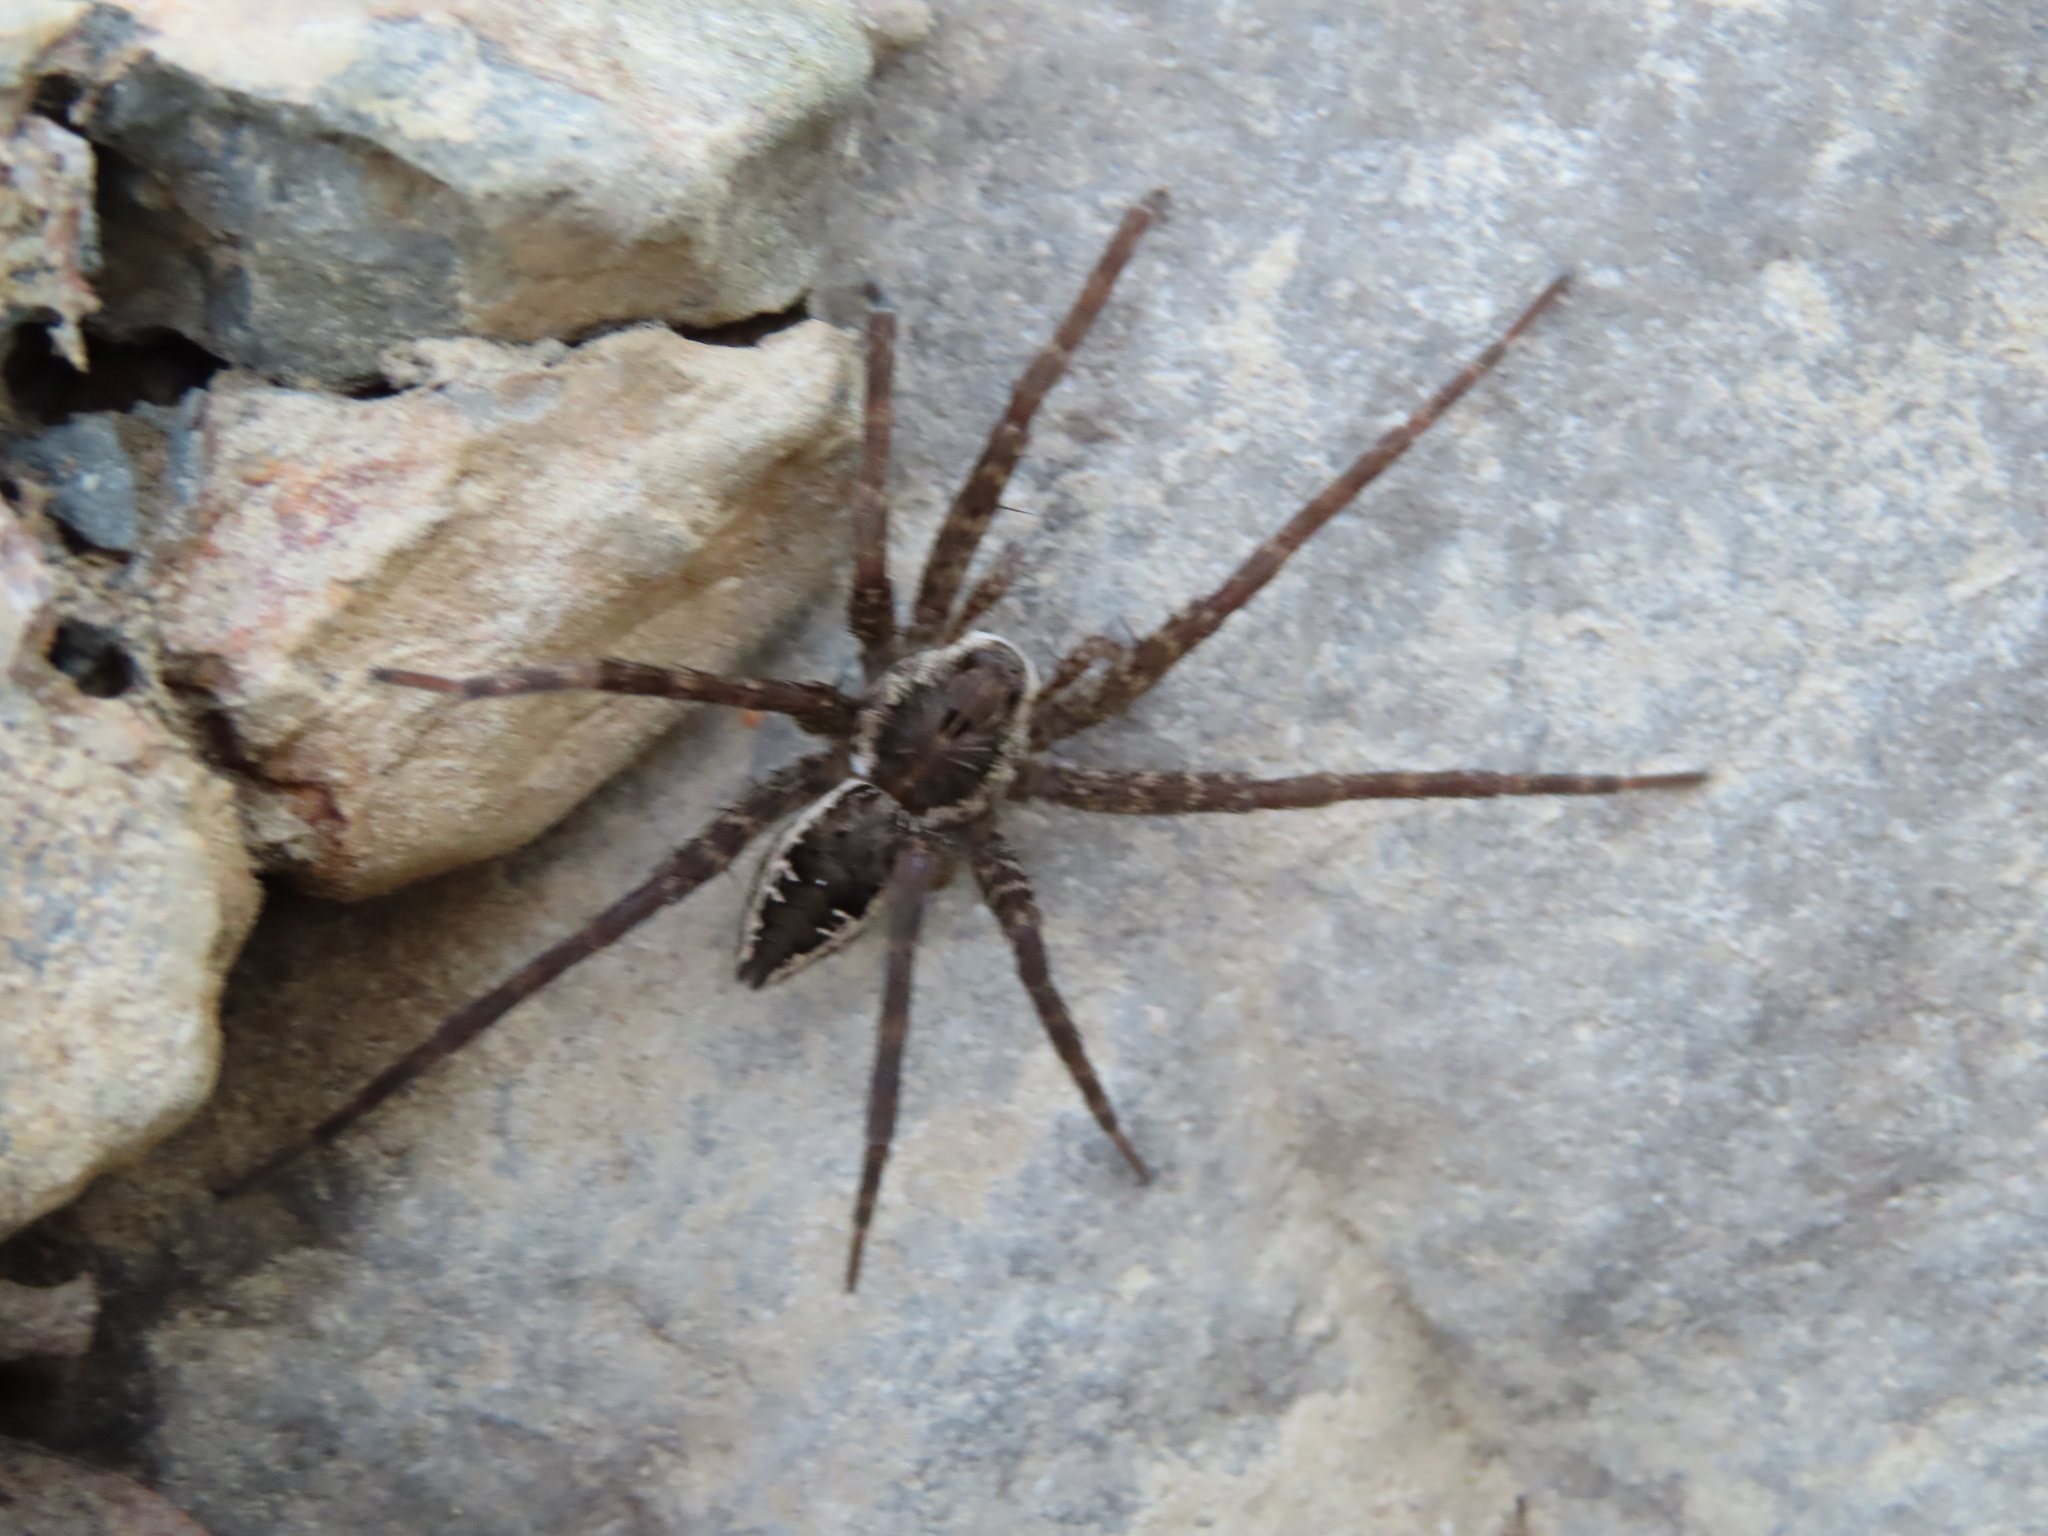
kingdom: Animalia
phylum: Arthropoda
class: Arachnida
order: Araneae
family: Pisauridae
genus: Dolomedes
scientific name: Dolomedes vittatus
